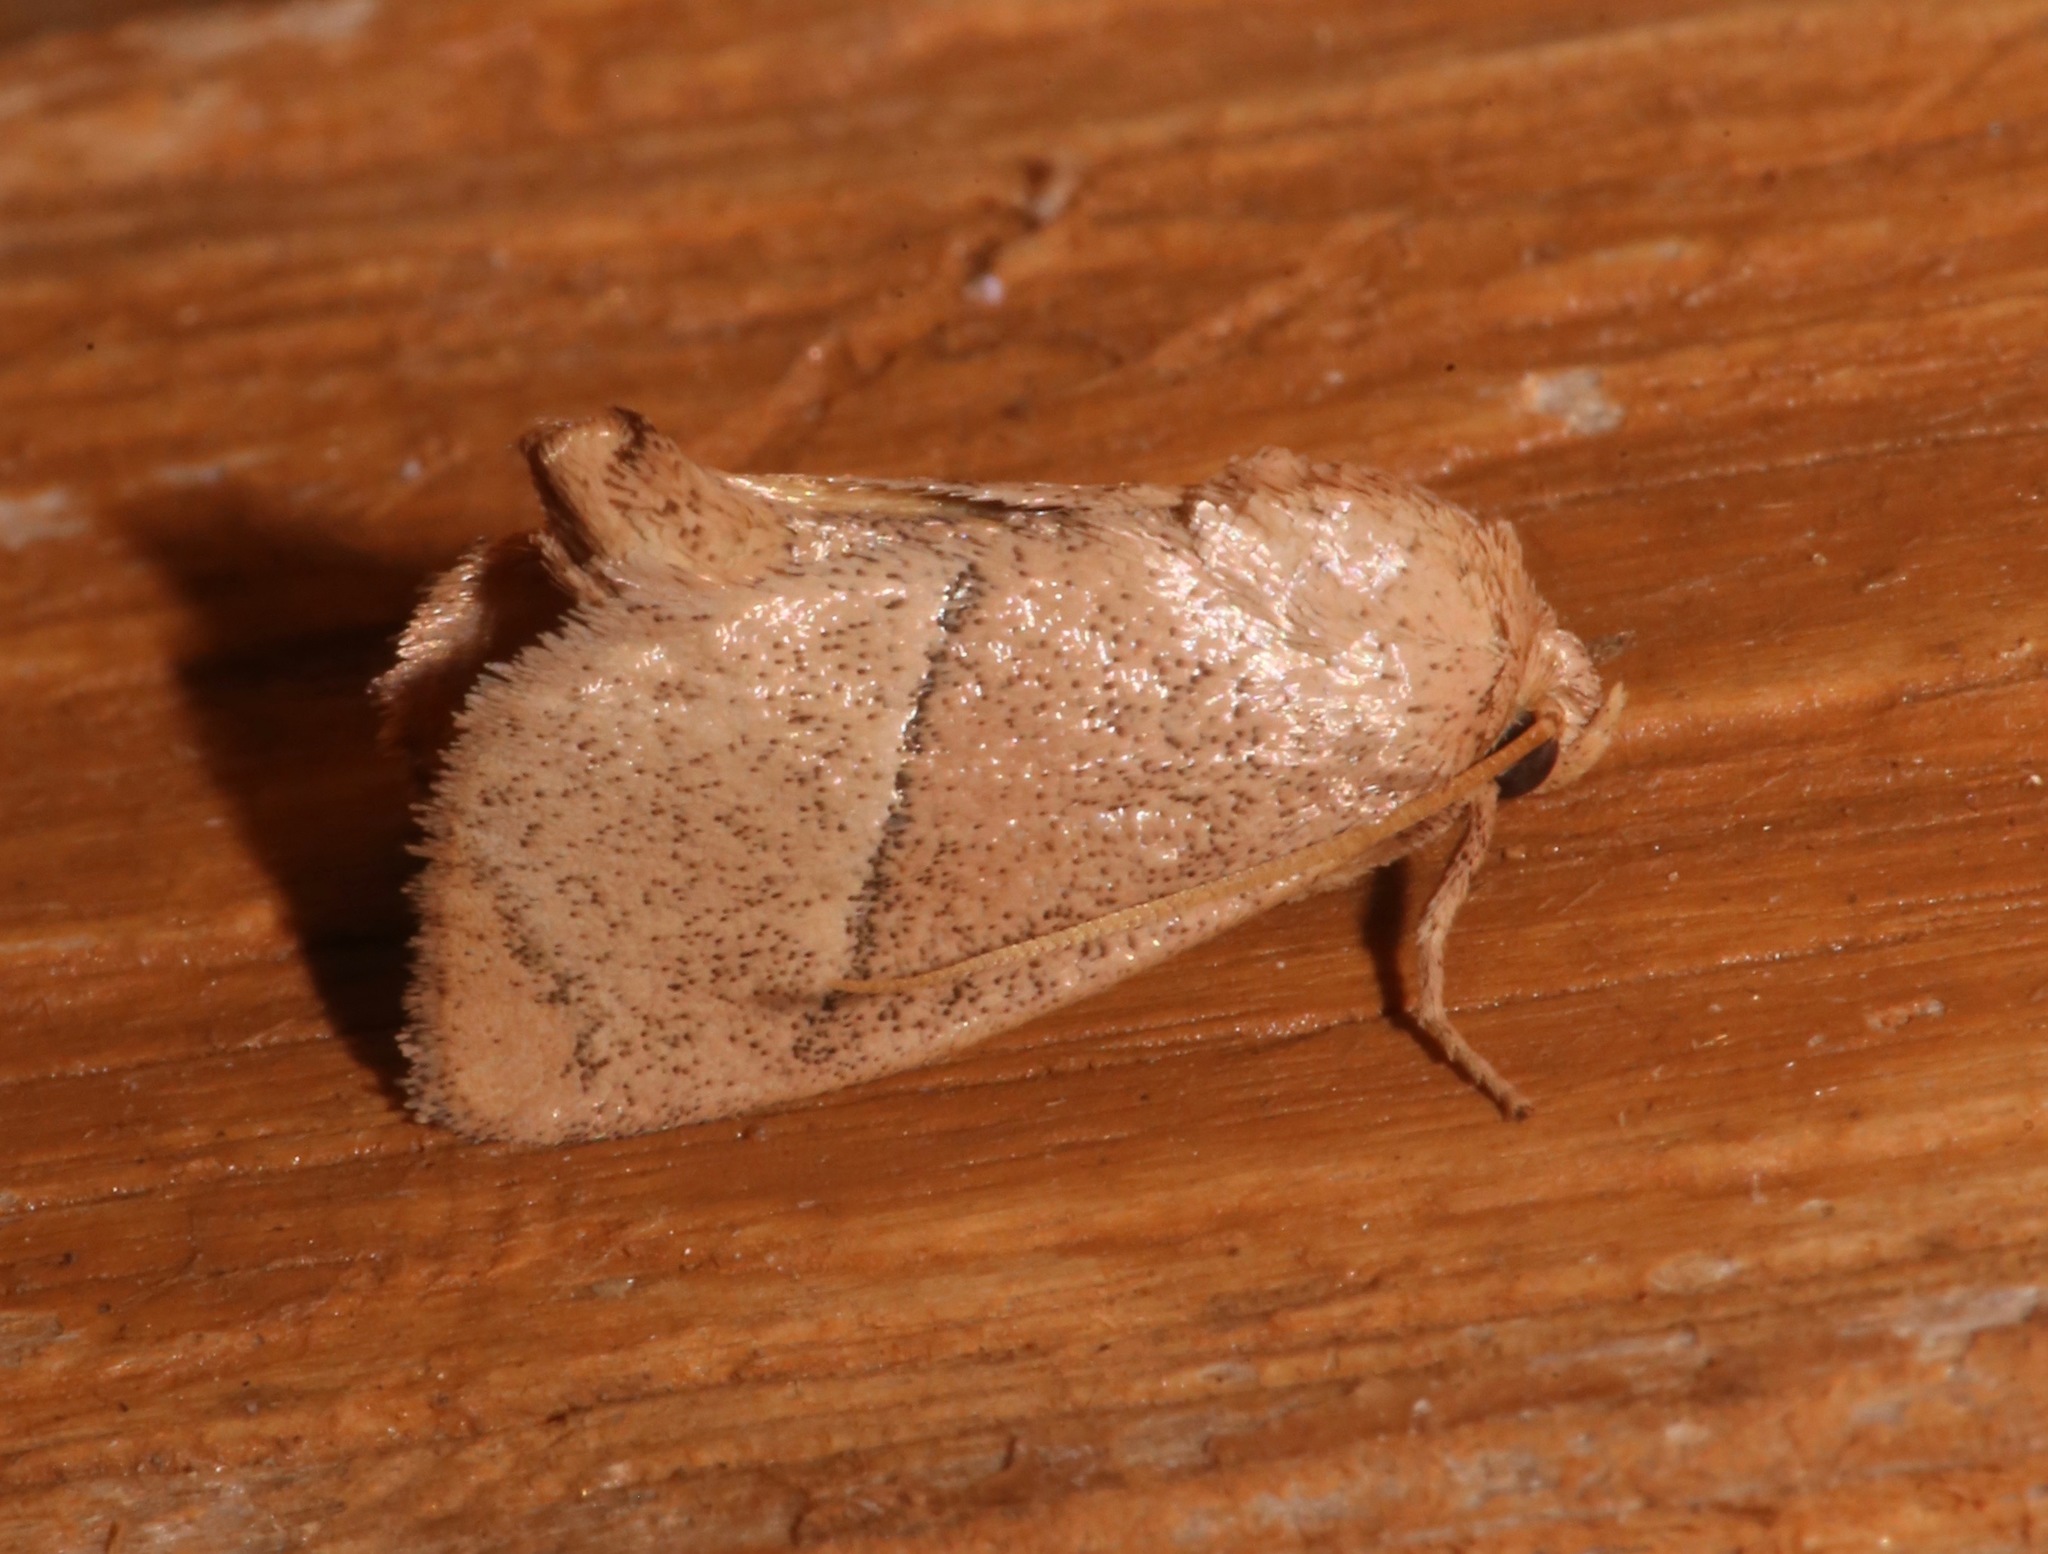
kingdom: Animalia
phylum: Arthropoda
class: Insecta
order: Lepidoptera
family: Limacodidae
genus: Apoda
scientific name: Apoda rectilinea
